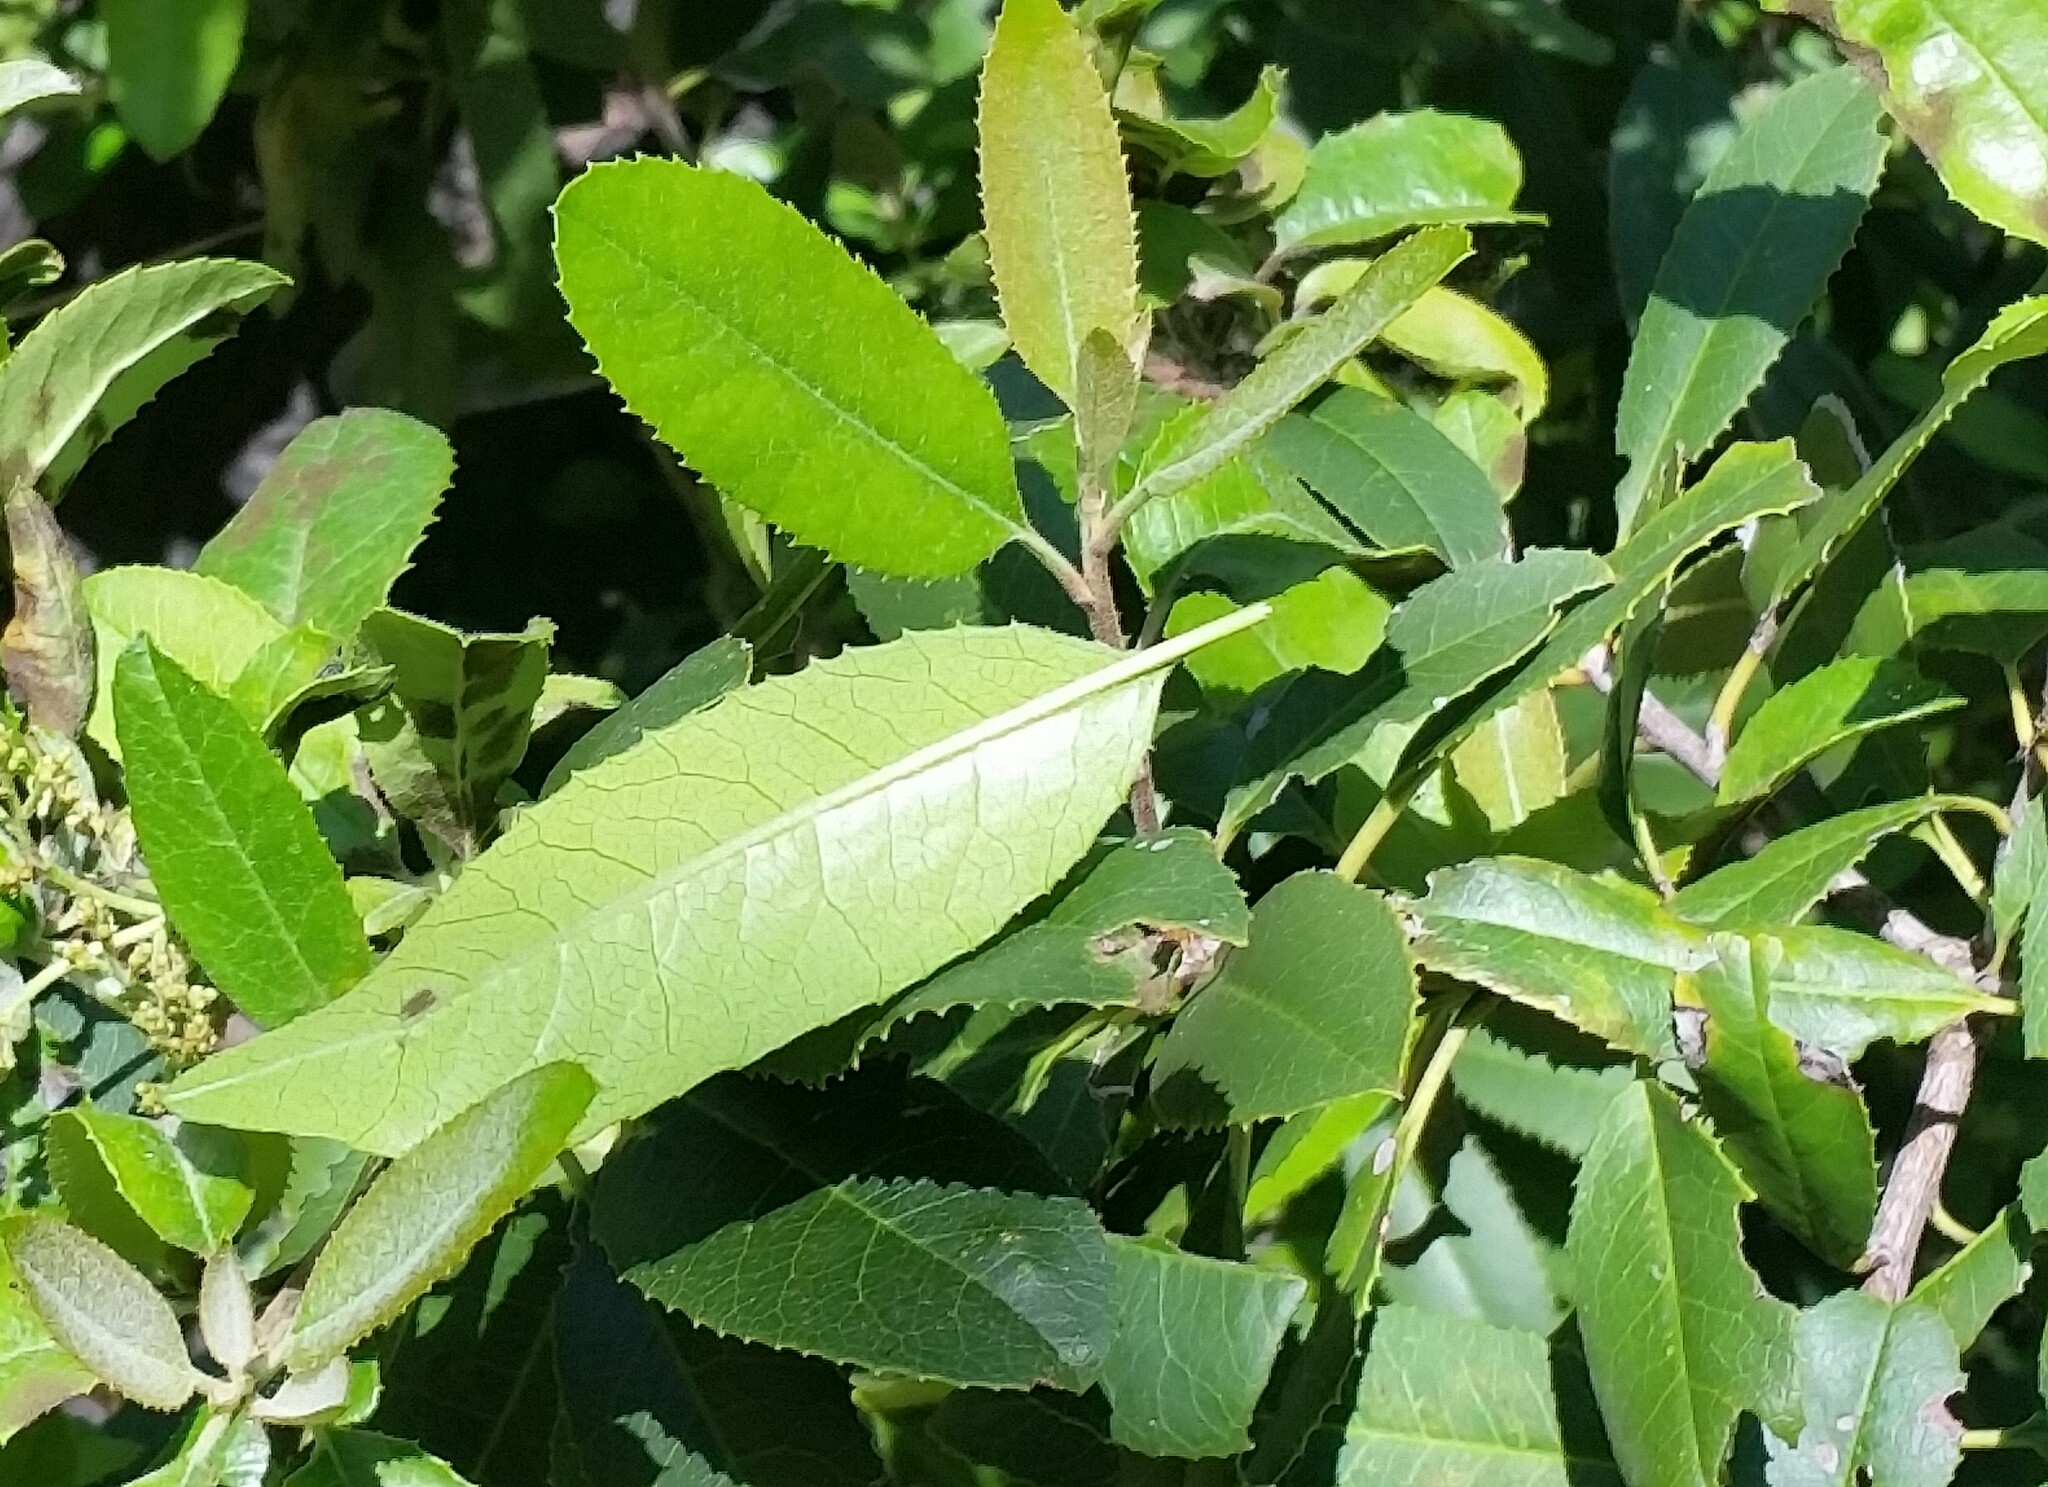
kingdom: Plantae
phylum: Tracheophyta
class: Magnoliopsida
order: Rosales
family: Rosaceae
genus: Heteromeles
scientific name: Heteromeles arbutifolia
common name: California-holly
